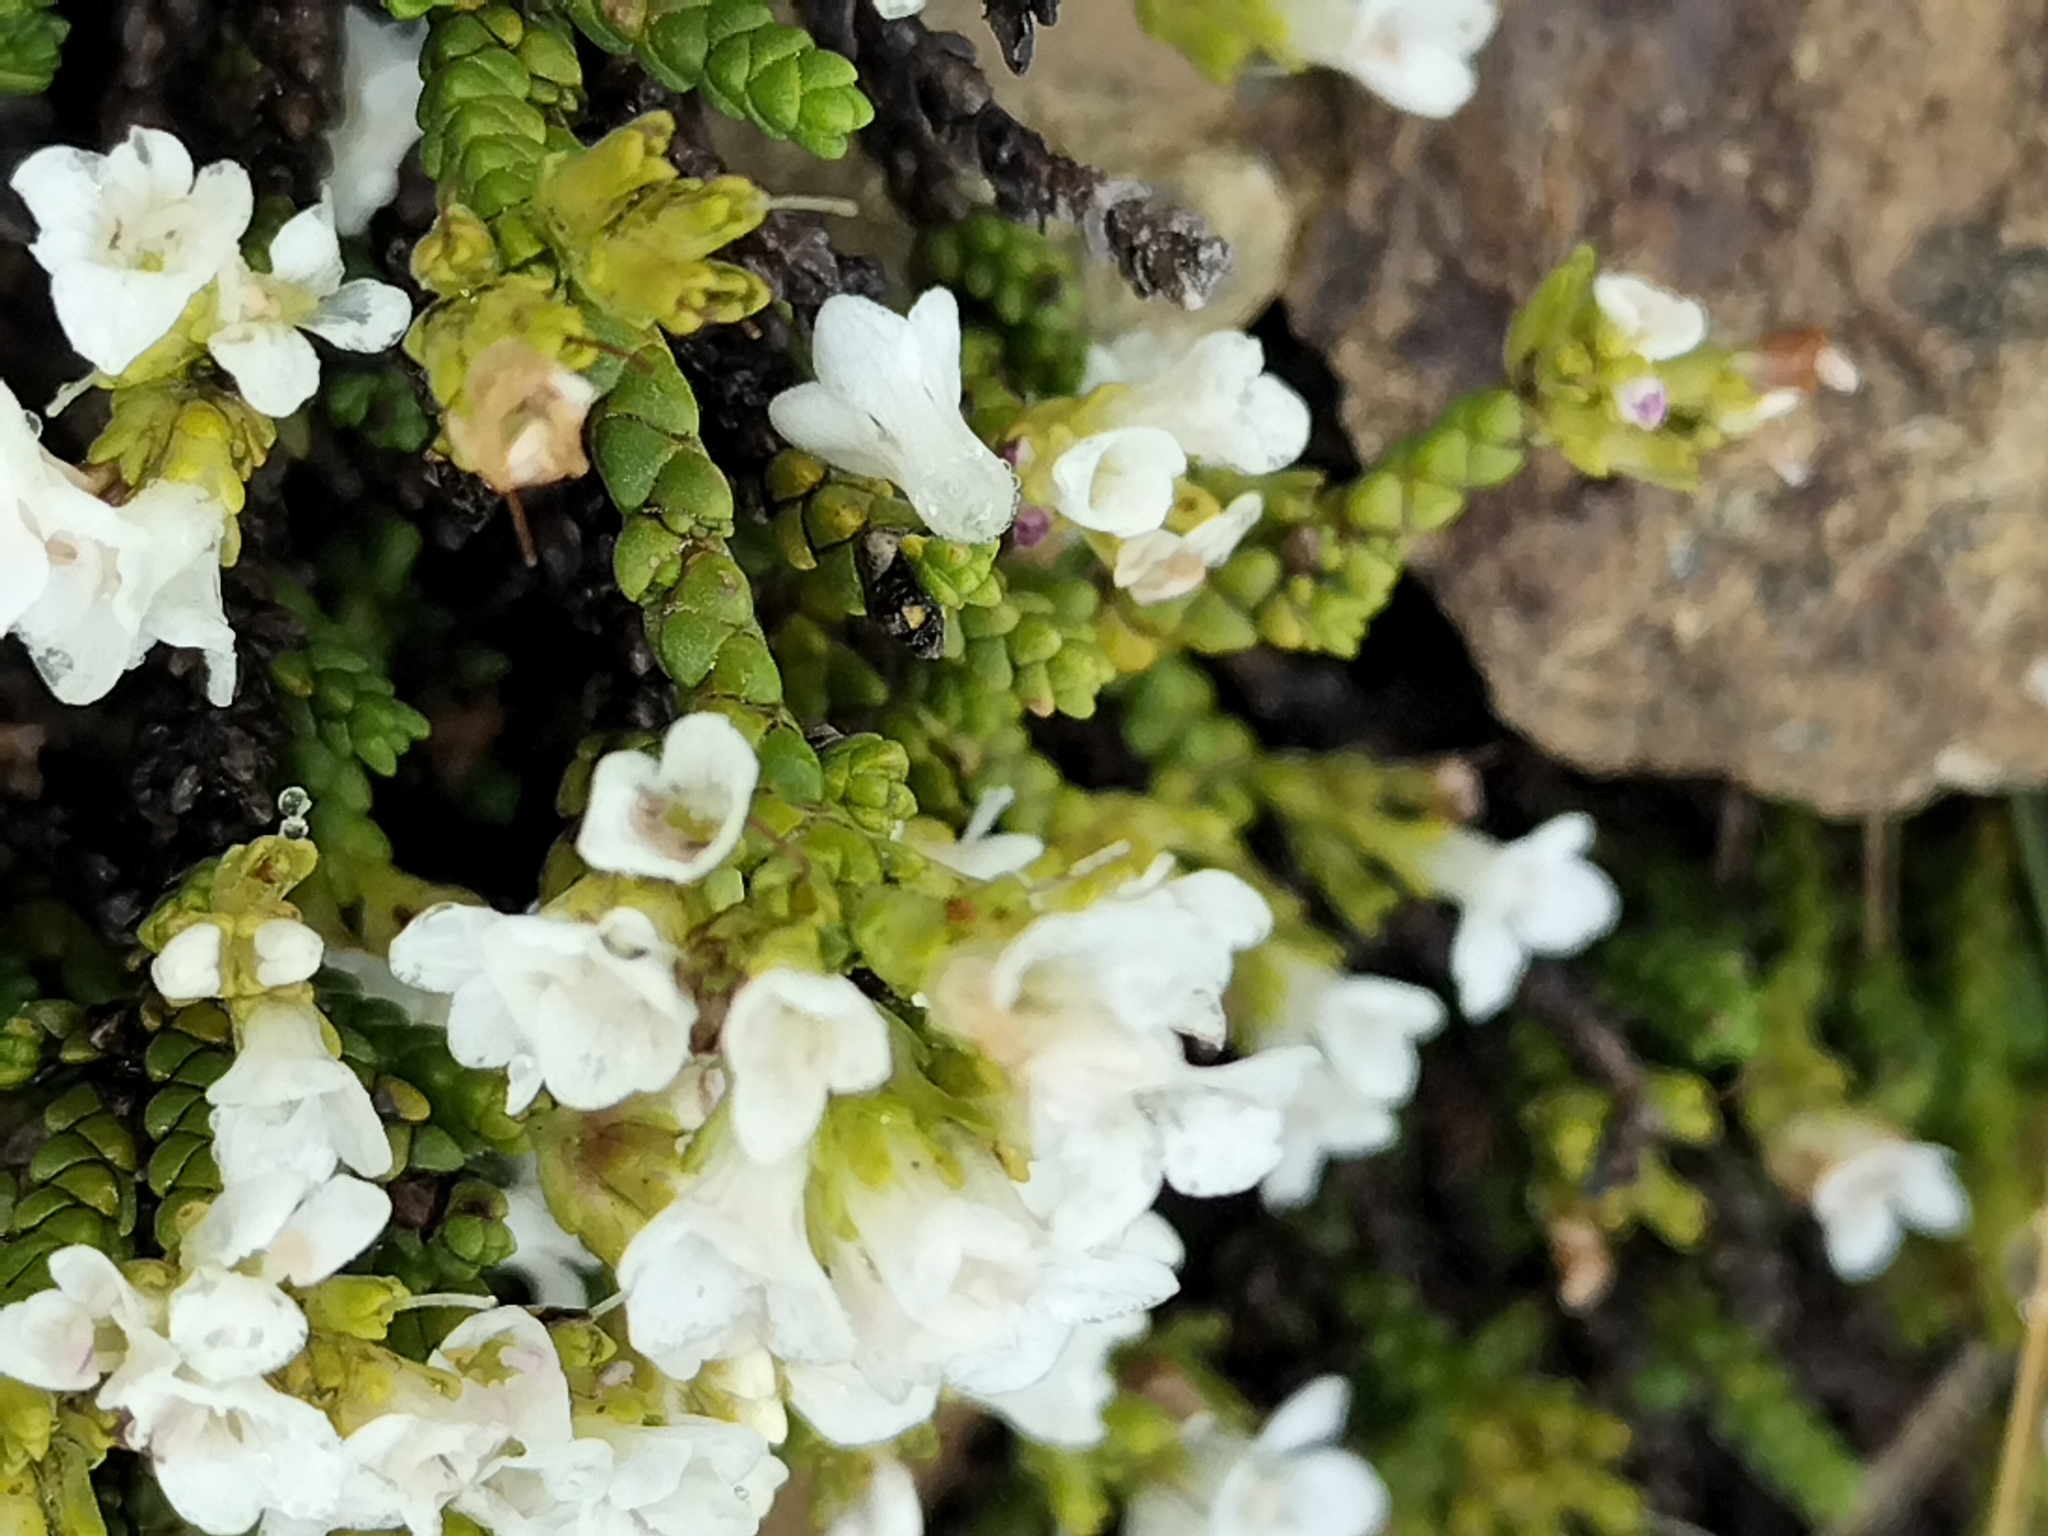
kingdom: Plantae
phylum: Tracheophyta
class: Magnoliopsida
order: Lamiales
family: Plantaginaceae
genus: Veronica
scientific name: Veronica tumida
